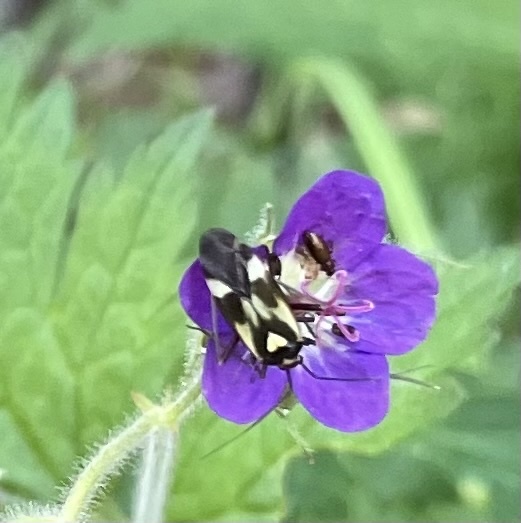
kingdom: Animalia
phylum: Arthropoda
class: Insecta
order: Hemiptera
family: Miridae
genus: Grypocoris
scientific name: Grypocoris sexguttatus
